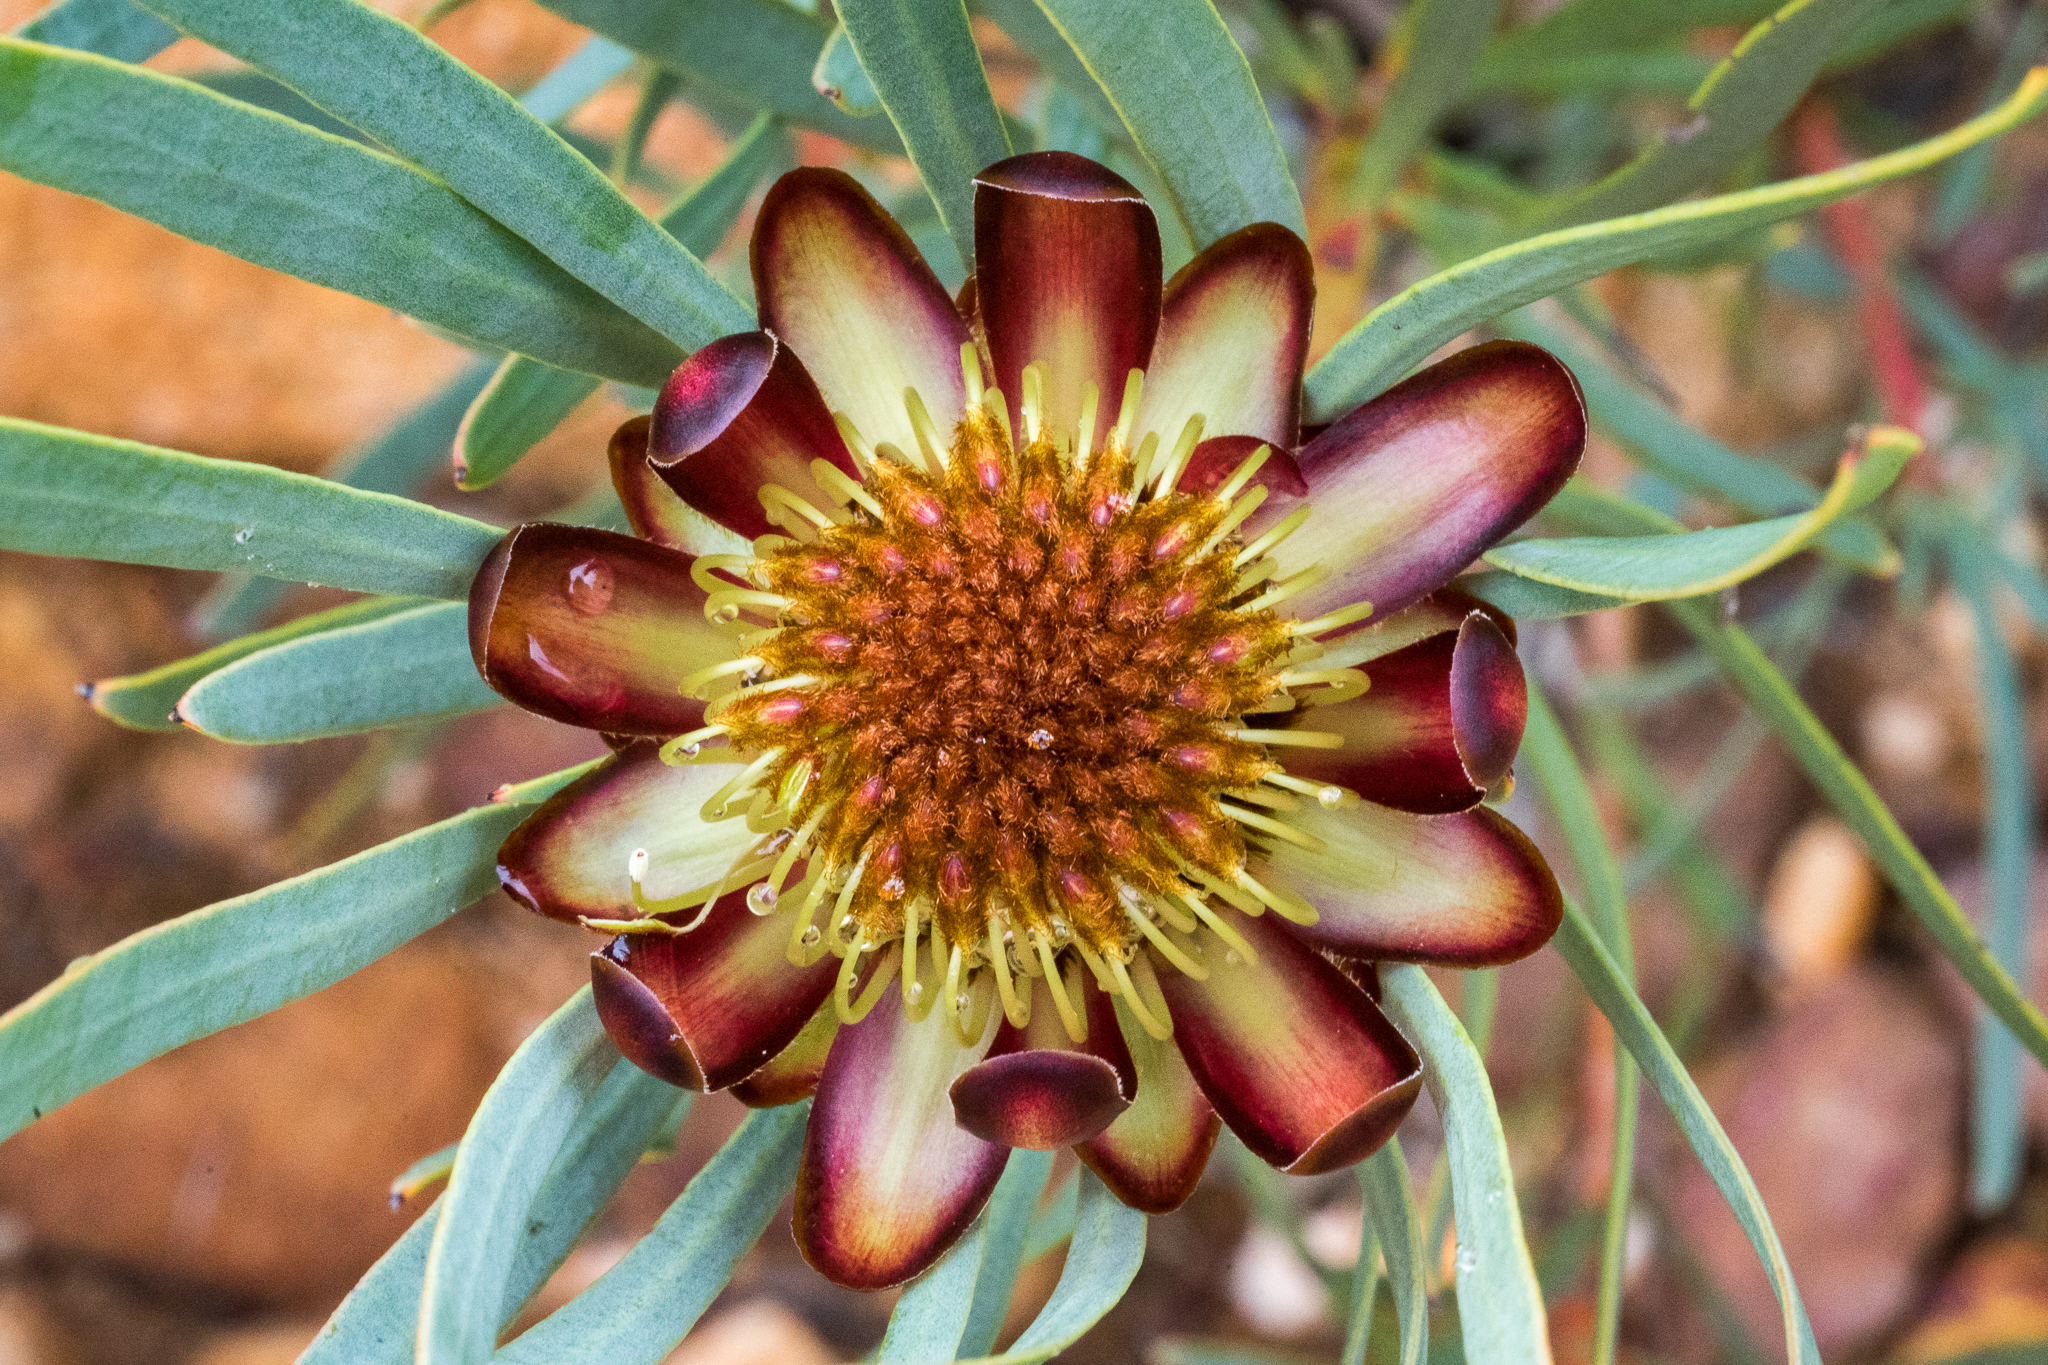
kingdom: Plantae
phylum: Tracheophyta
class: Magnoliopsida
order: Proteales
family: Proteaceae
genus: Protea
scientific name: Protea acuminata
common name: Black-rim sugarbush
